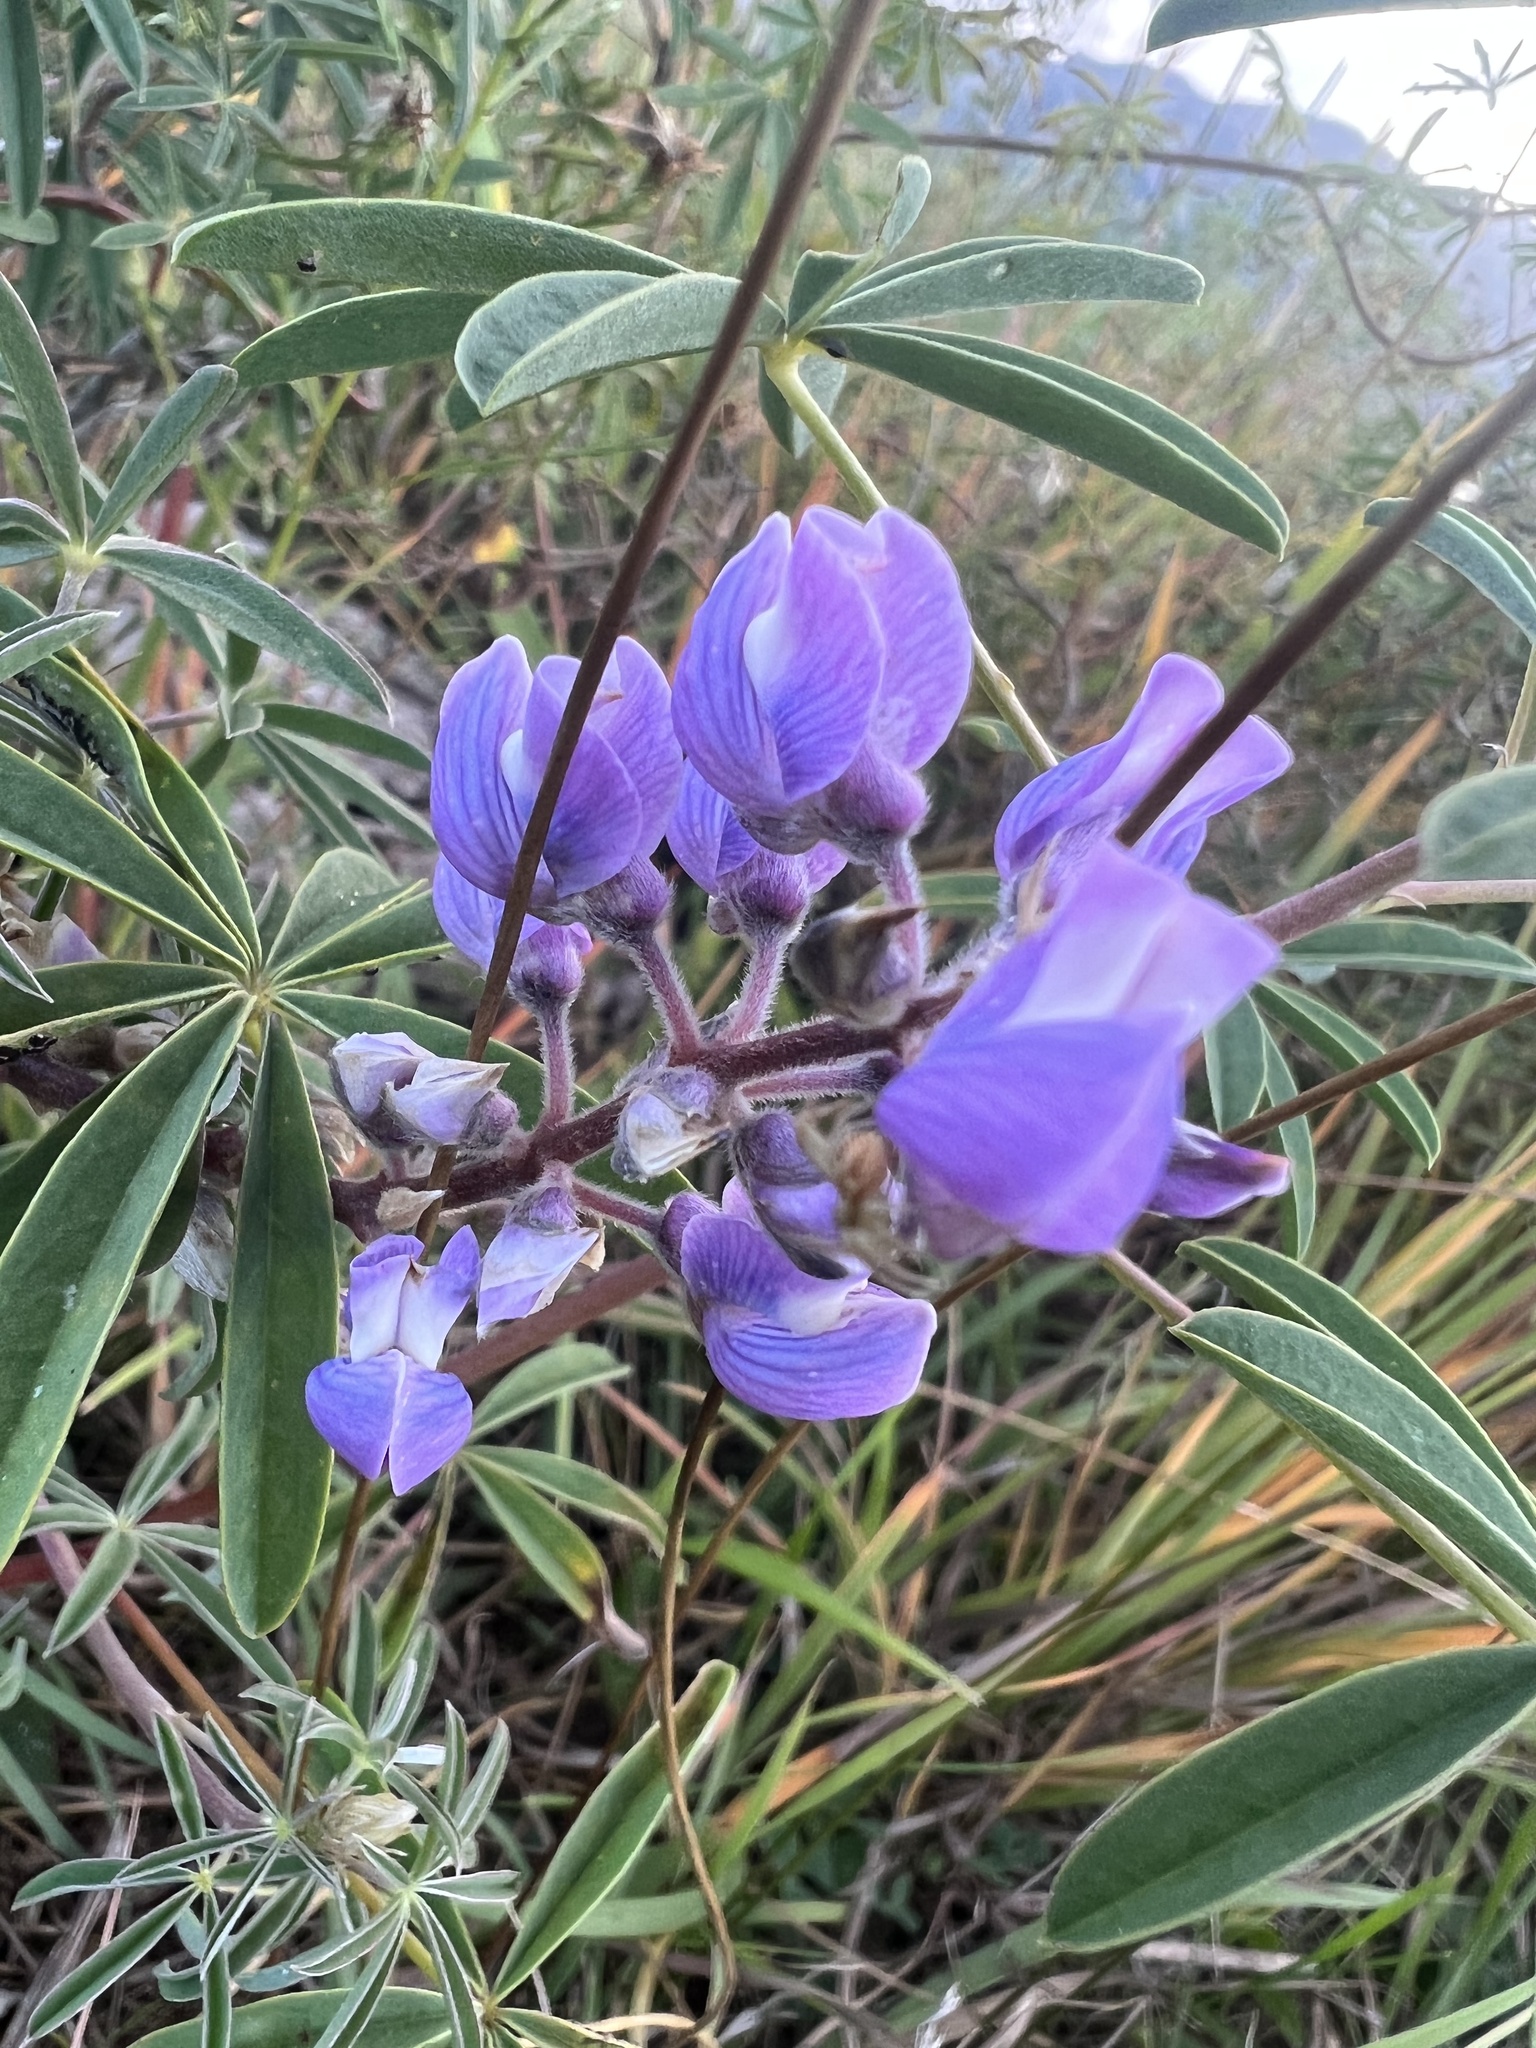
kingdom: Plantae
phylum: Tracheophyta
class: Magnoliopsida
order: Fabales
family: Fabaceae
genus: Lupinus
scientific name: Lupinus argenteus
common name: Silvery lupine
